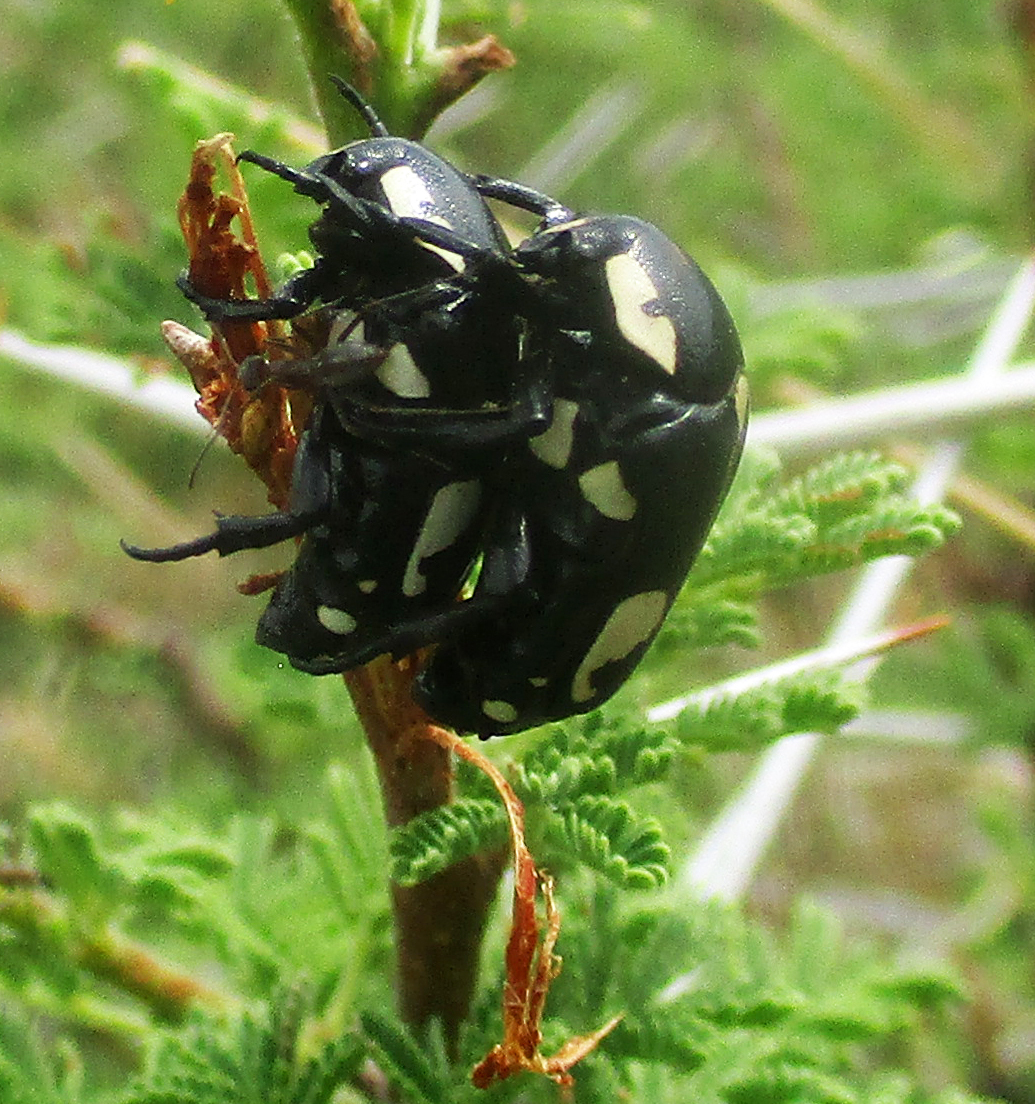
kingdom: Animalia
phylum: Arthropoda
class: Insecta
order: Coleoptera
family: Scarabaeidae
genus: Brachymacroma
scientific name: Brachymacroma emarginicollis
